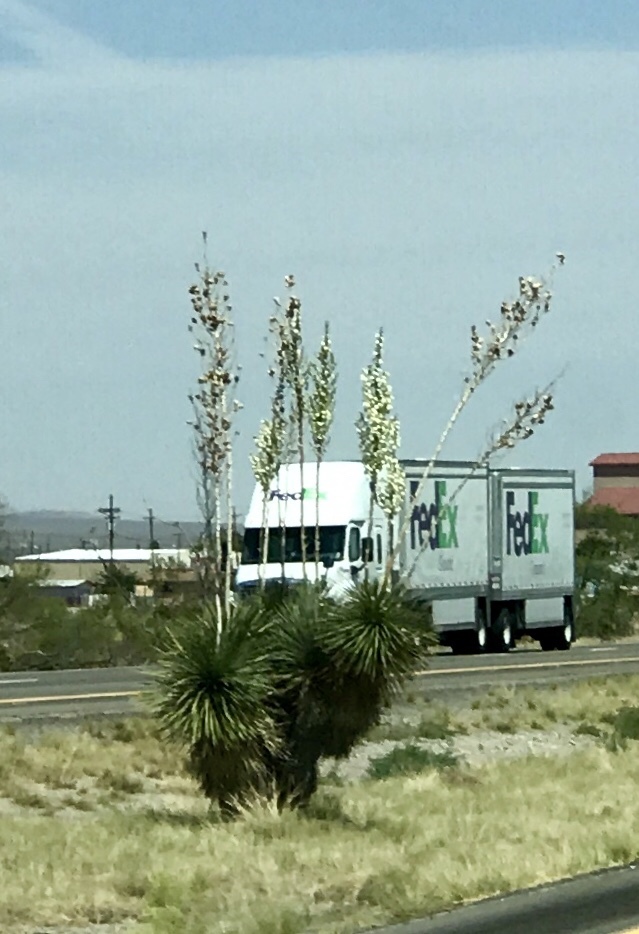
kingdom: Plantae
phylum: Tracheophyta
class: Liliopsida
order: Asparagales
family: Asparagaceae
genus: Yucca
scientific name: Yucca elata
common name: Palmella
